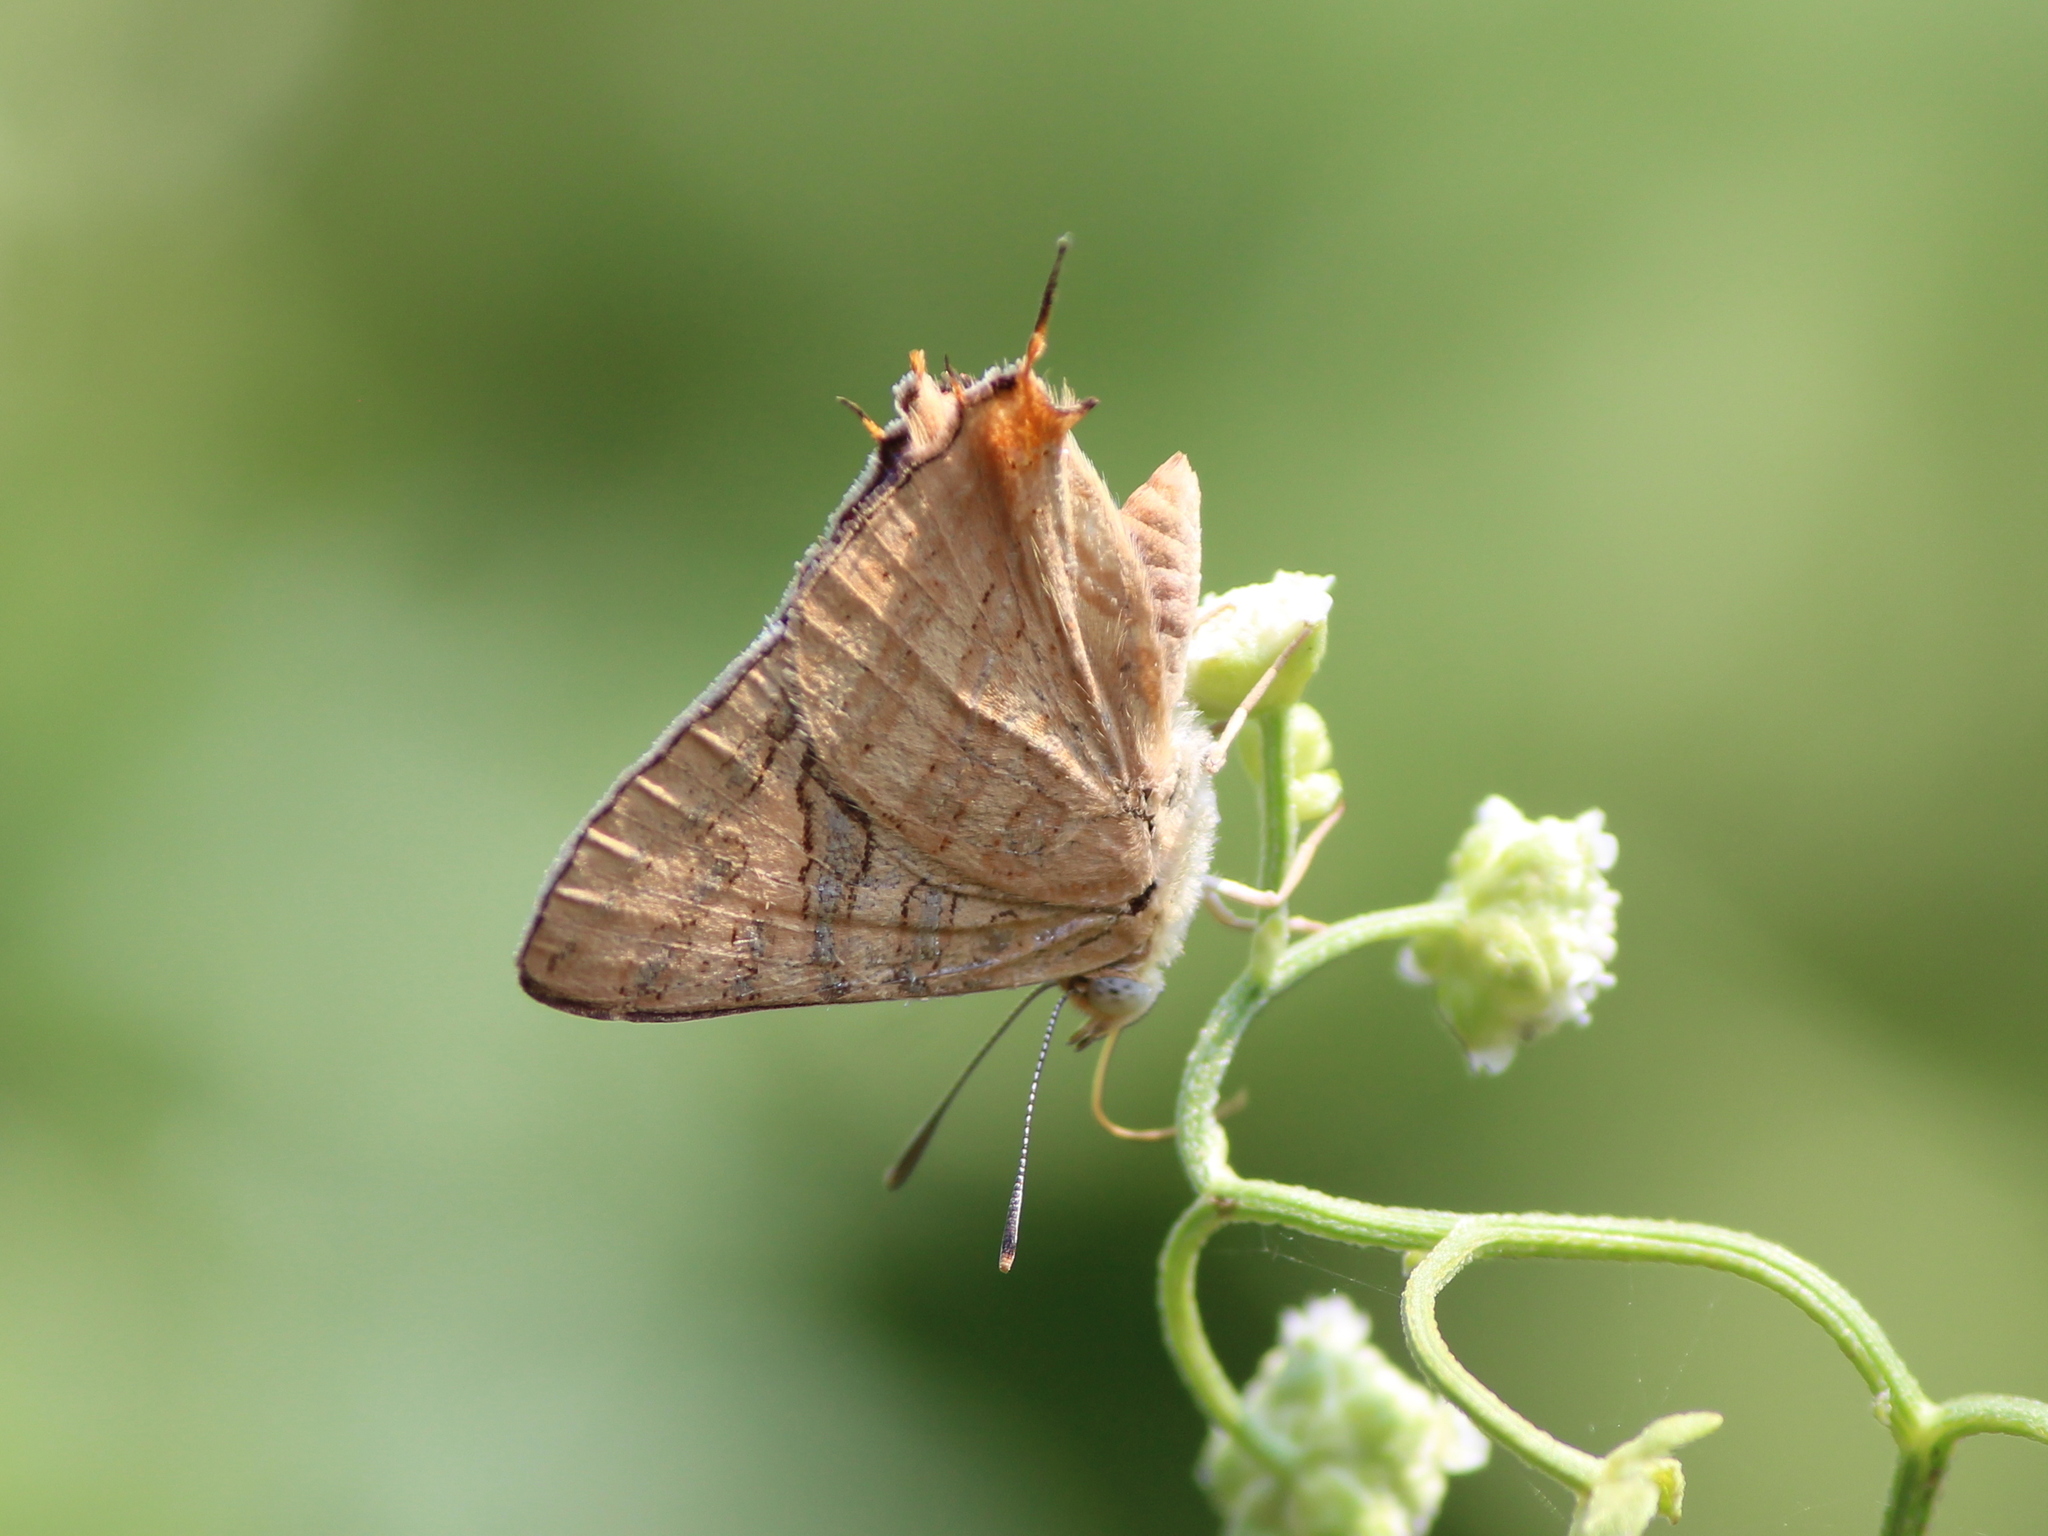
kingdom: Animalia
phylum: Arthropoda
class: Insecta
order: Lepidoptera
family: Lycaenidae
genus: Cigaritis
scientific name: Cigaritis
